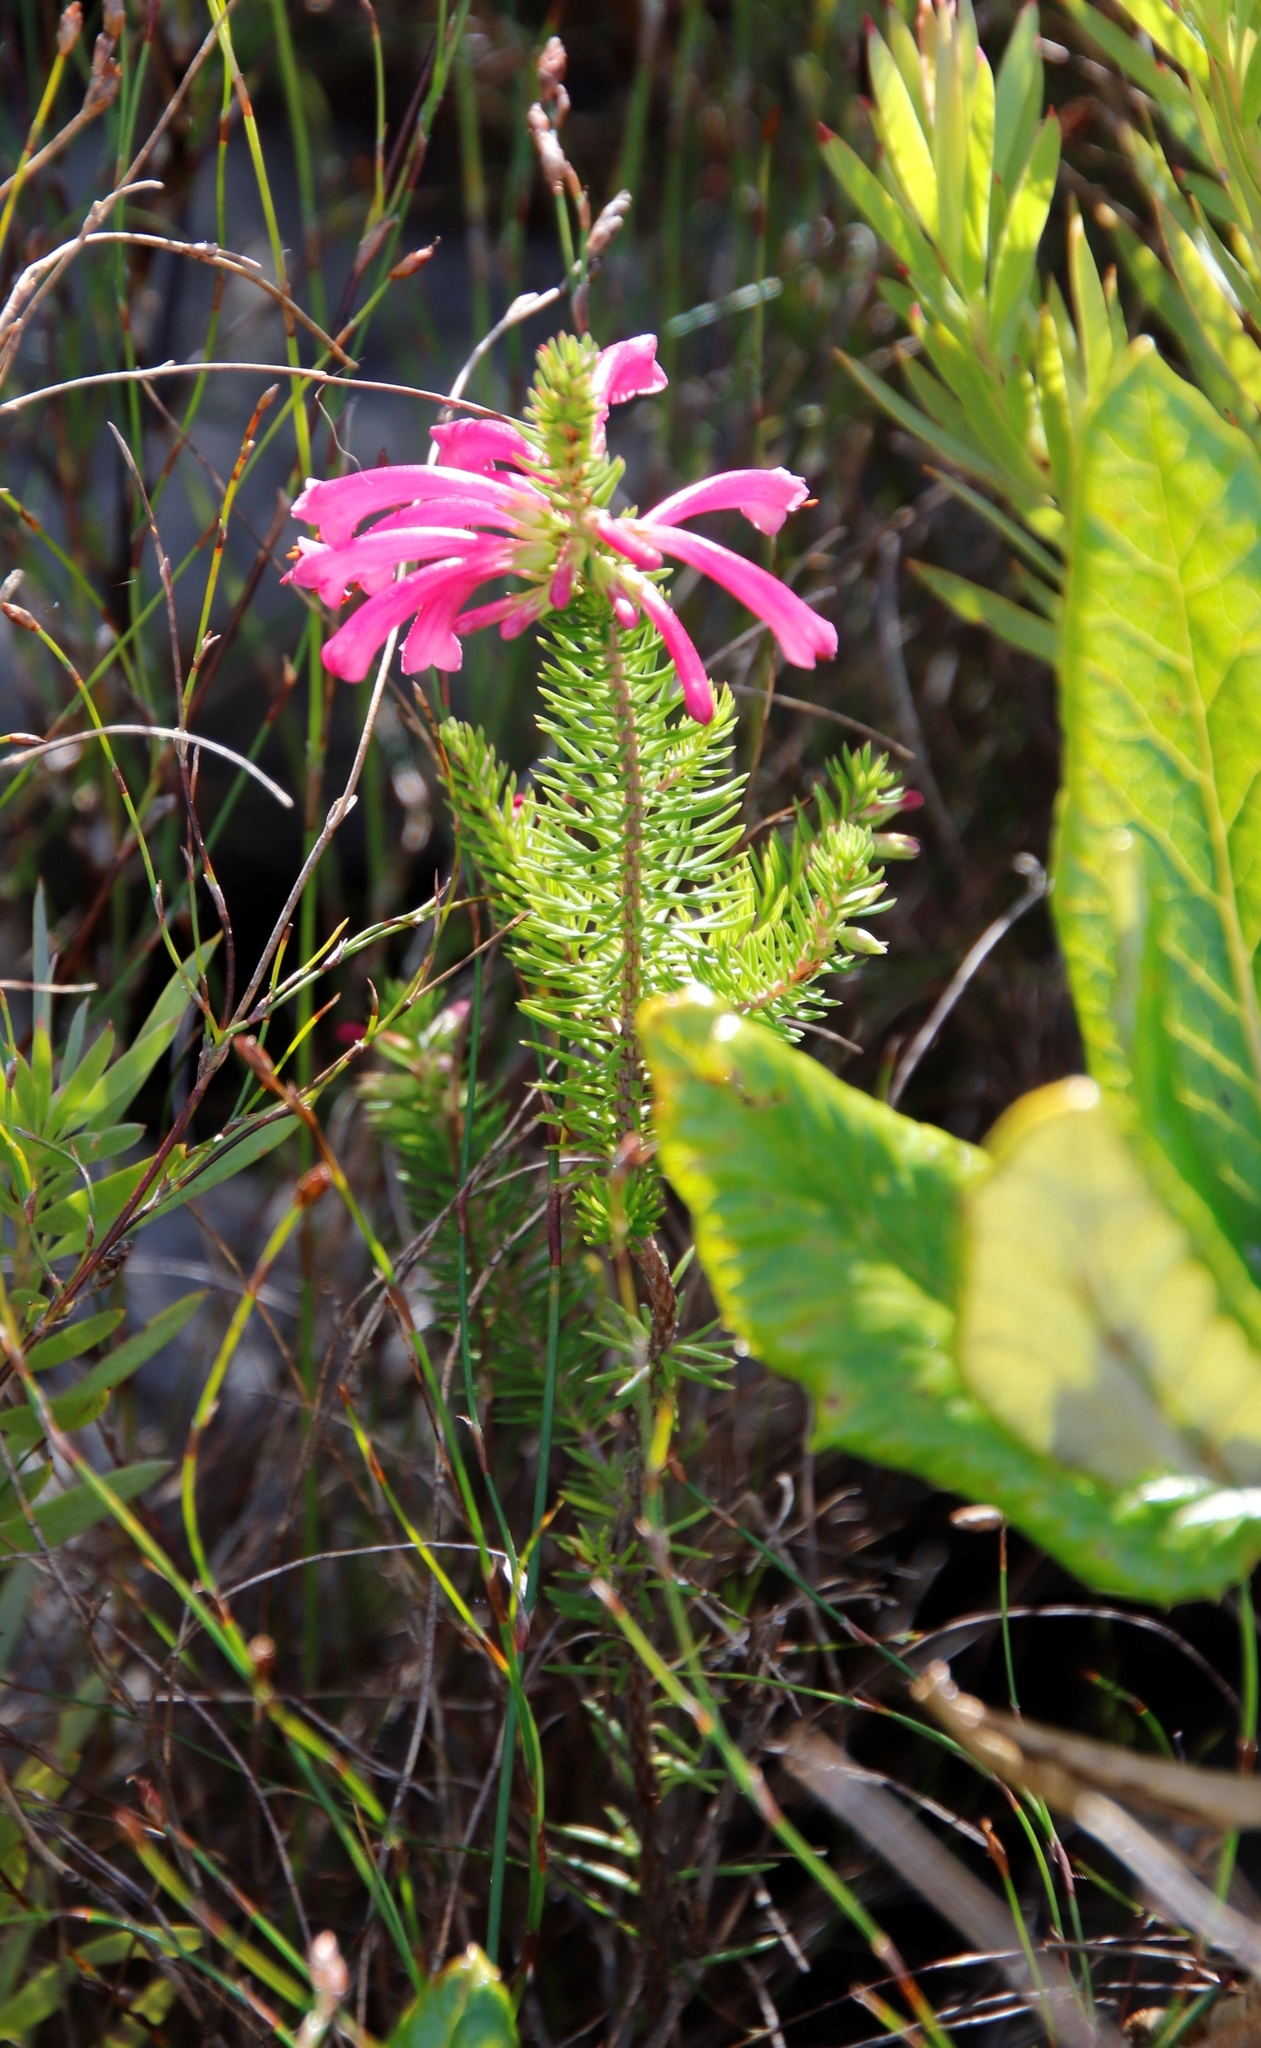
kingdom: Plantae
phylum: Tracheophyta
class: Magnoliopsida
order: Ericales
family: Ericaceae
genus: Erica
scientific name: Erica abietina
